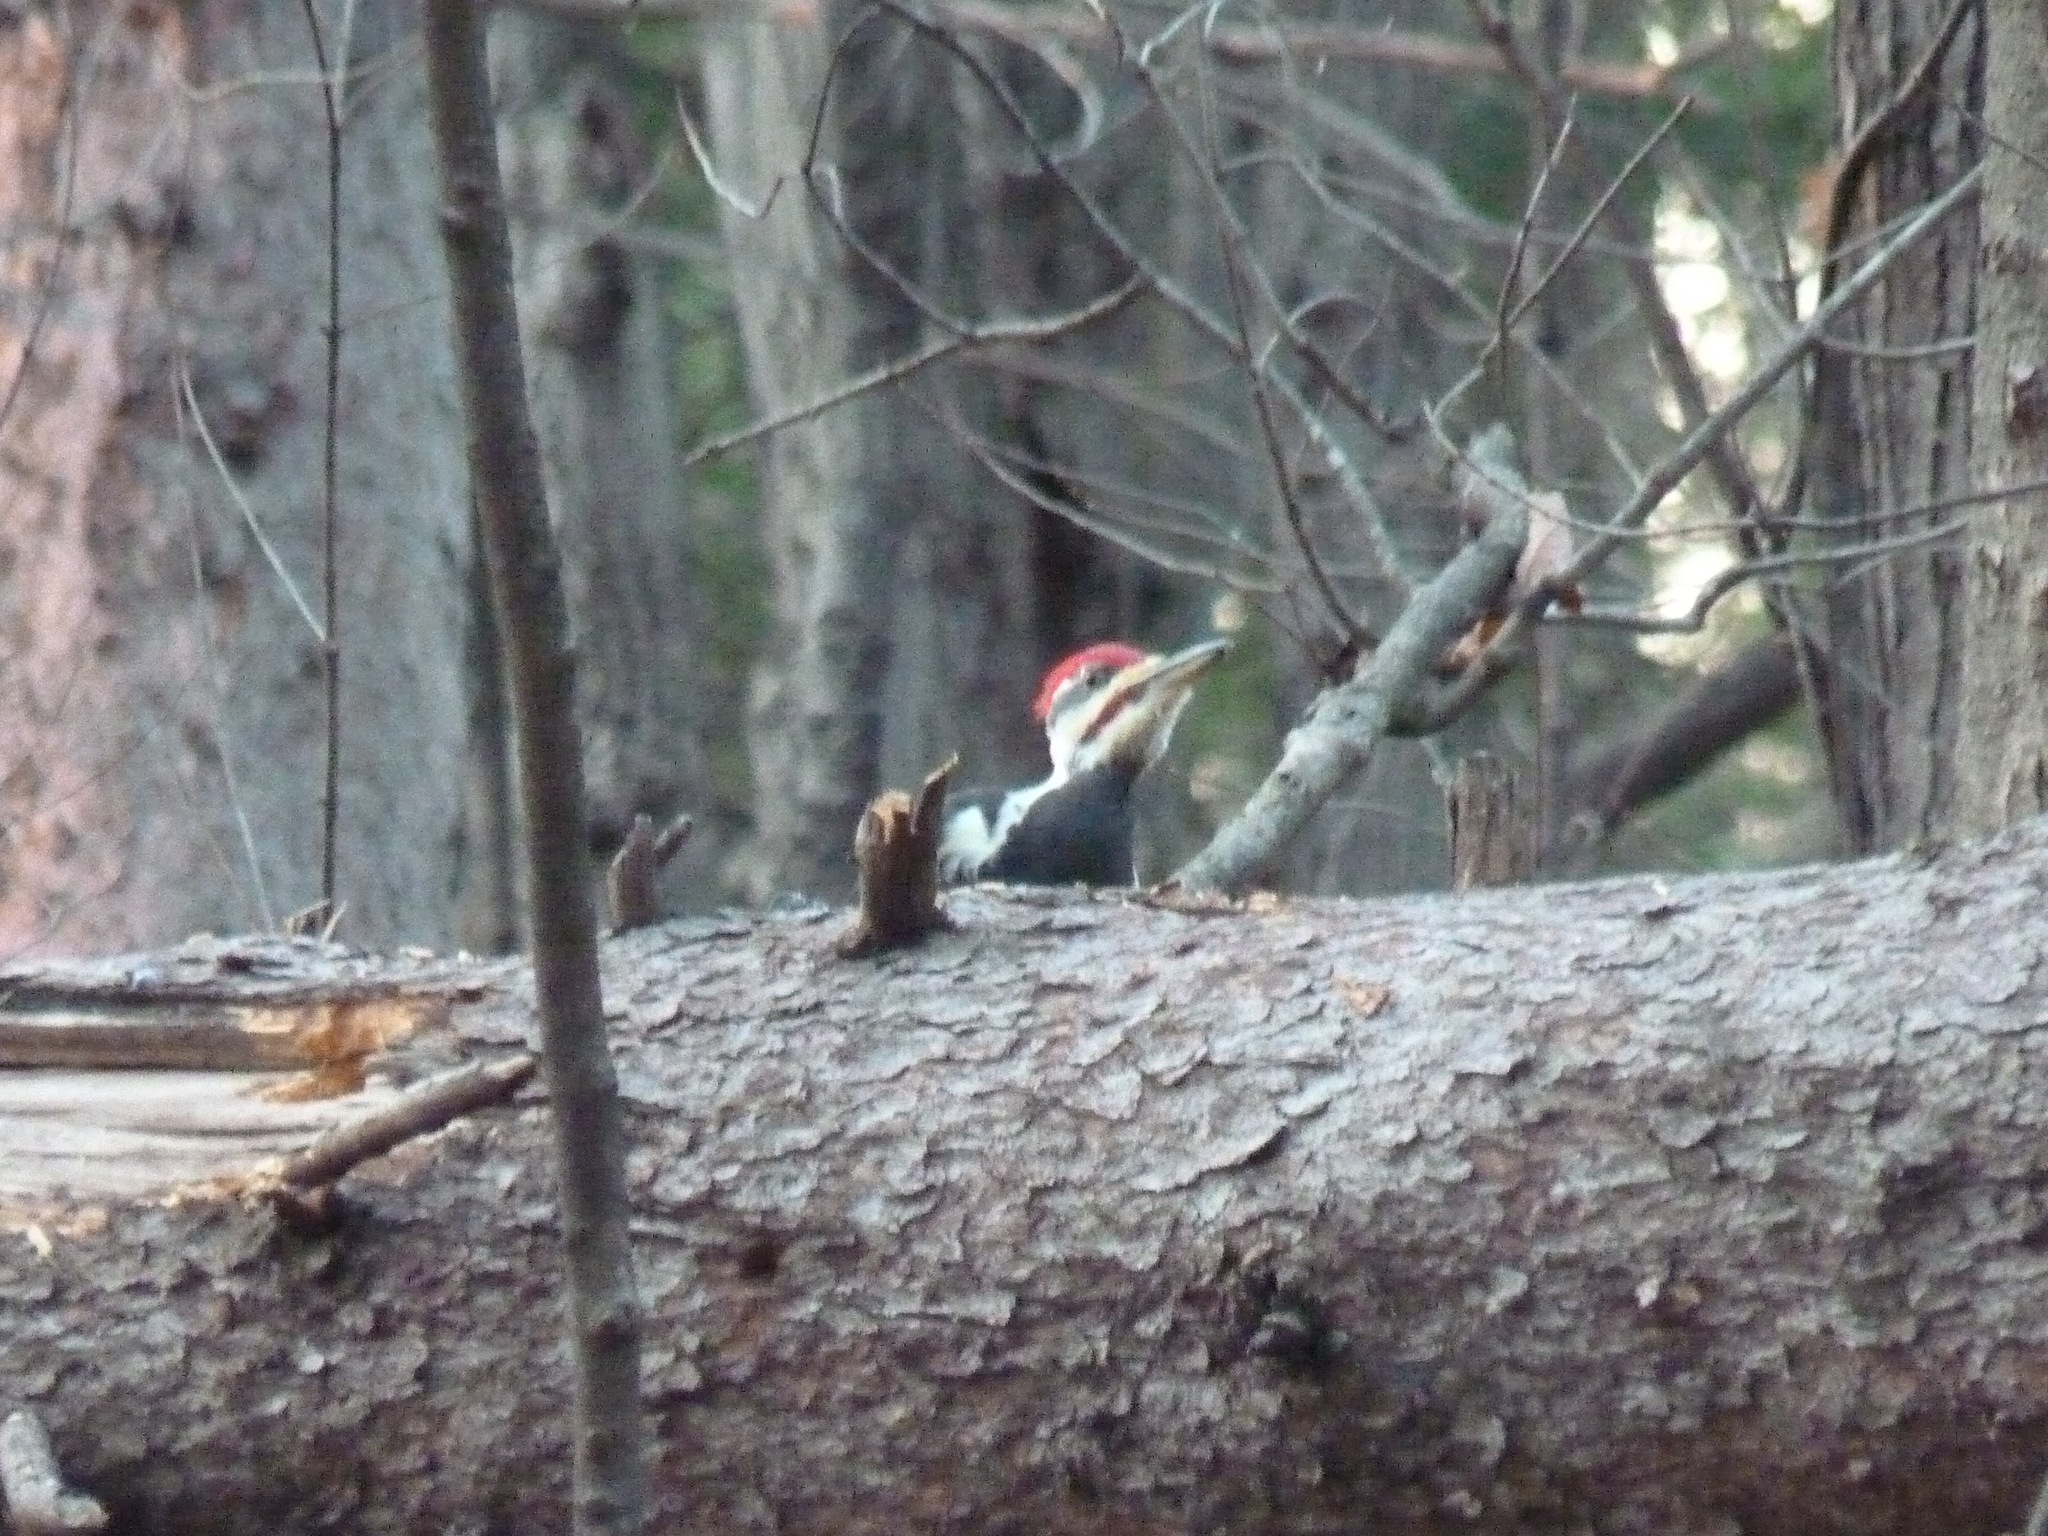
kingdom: Animalia
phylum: Chordata
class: Aves
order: Piciformes
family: Picidae
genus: Dryocopus
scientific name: Dryocopus pileatus
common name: Pileated woodpecker
